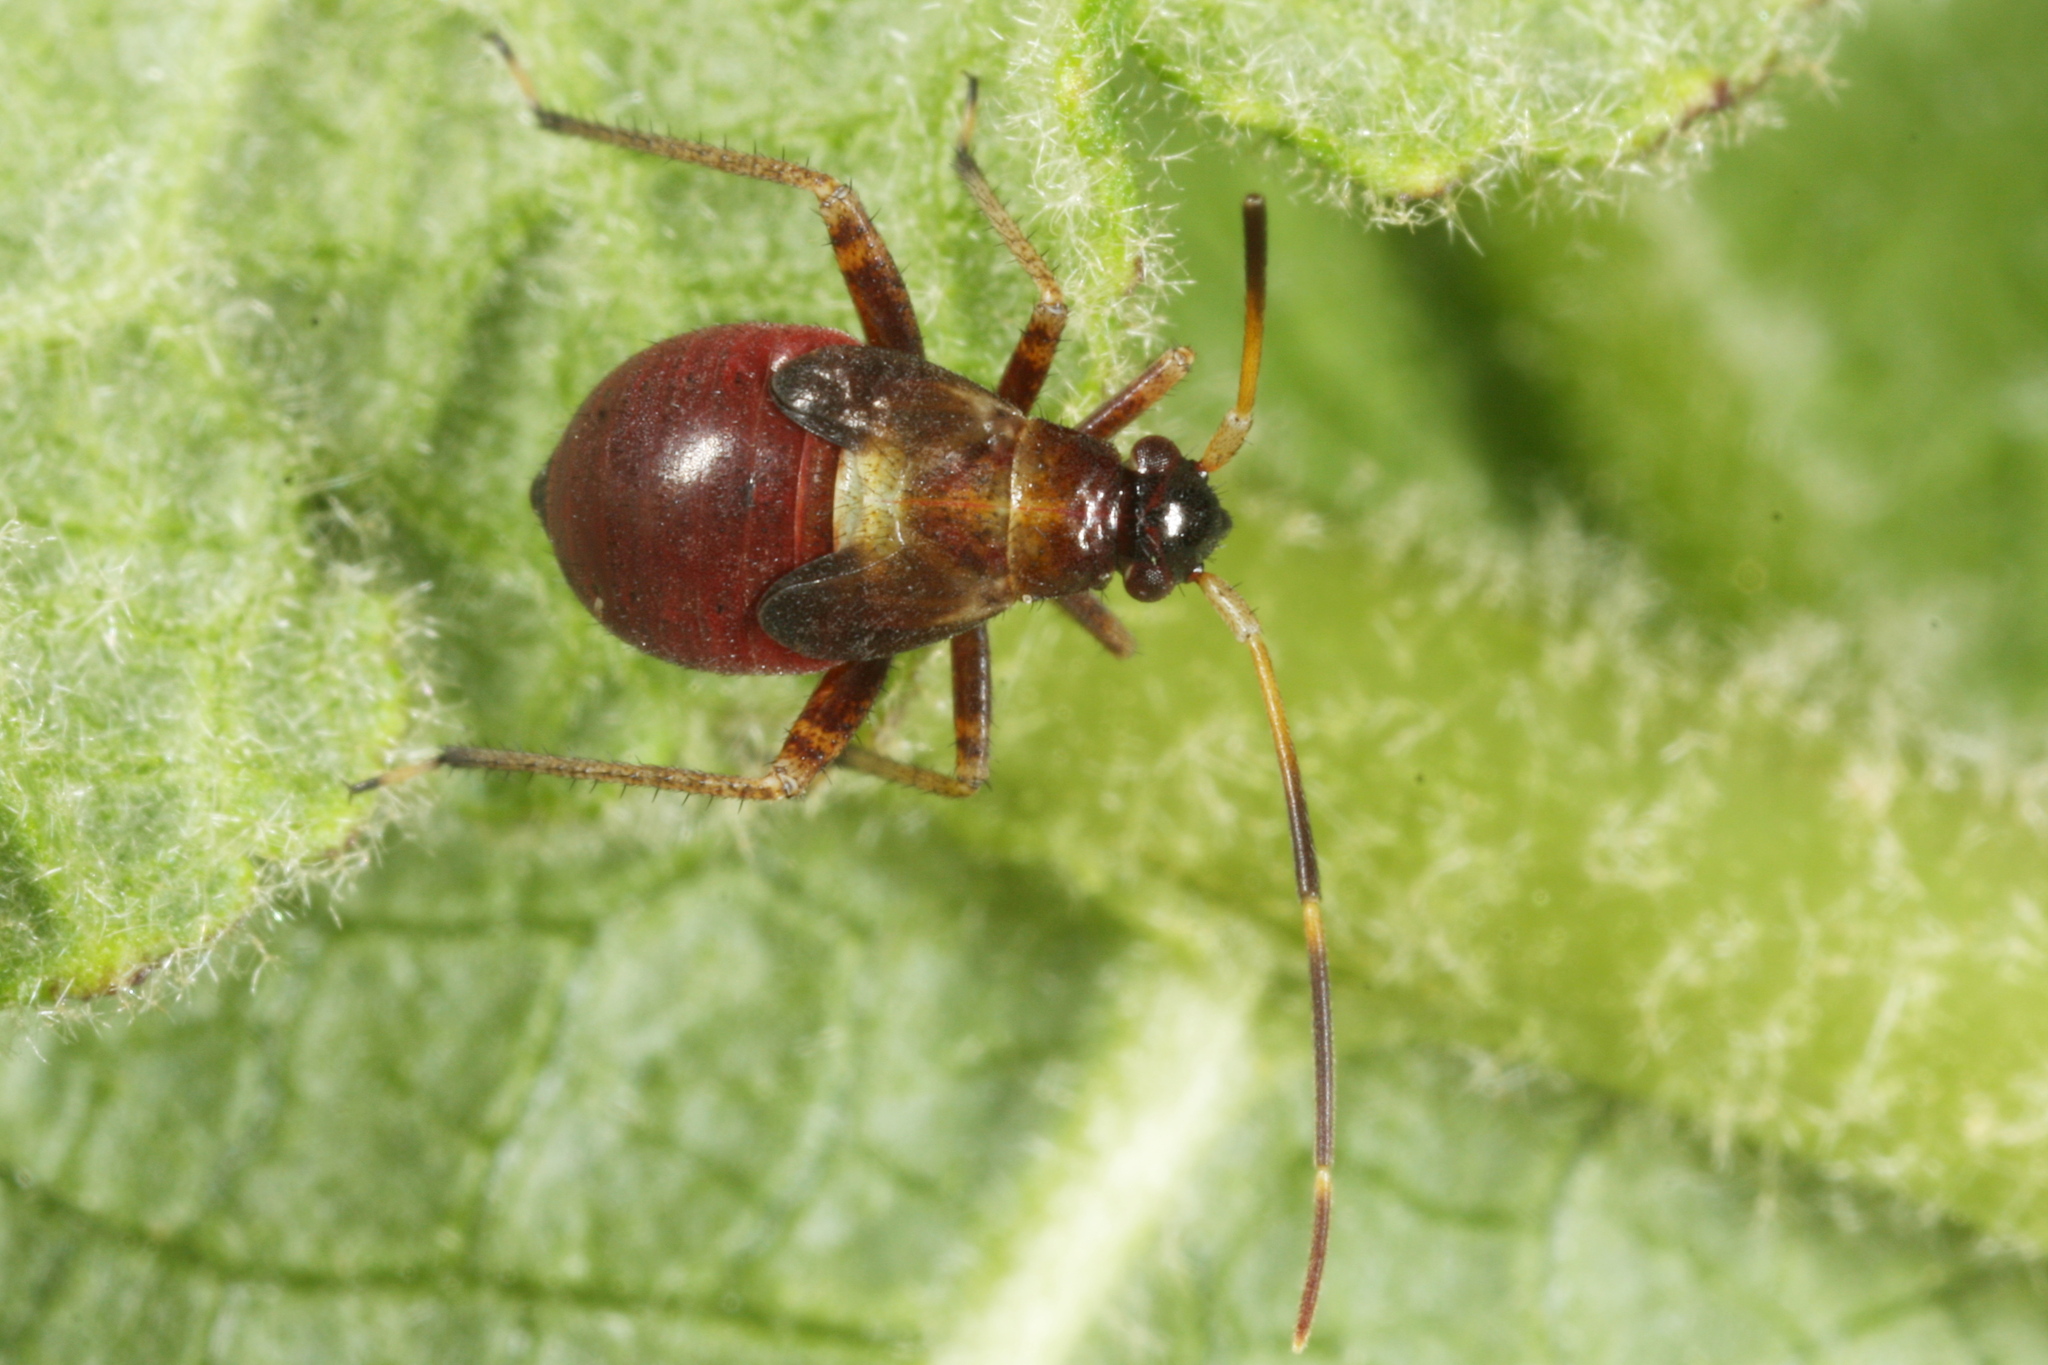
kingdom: Animalia
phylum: Arthropoda
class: Insecta
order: Hemiptera
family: Miridae
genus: Adelphocoris
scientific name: Adelphocoris seticornis
